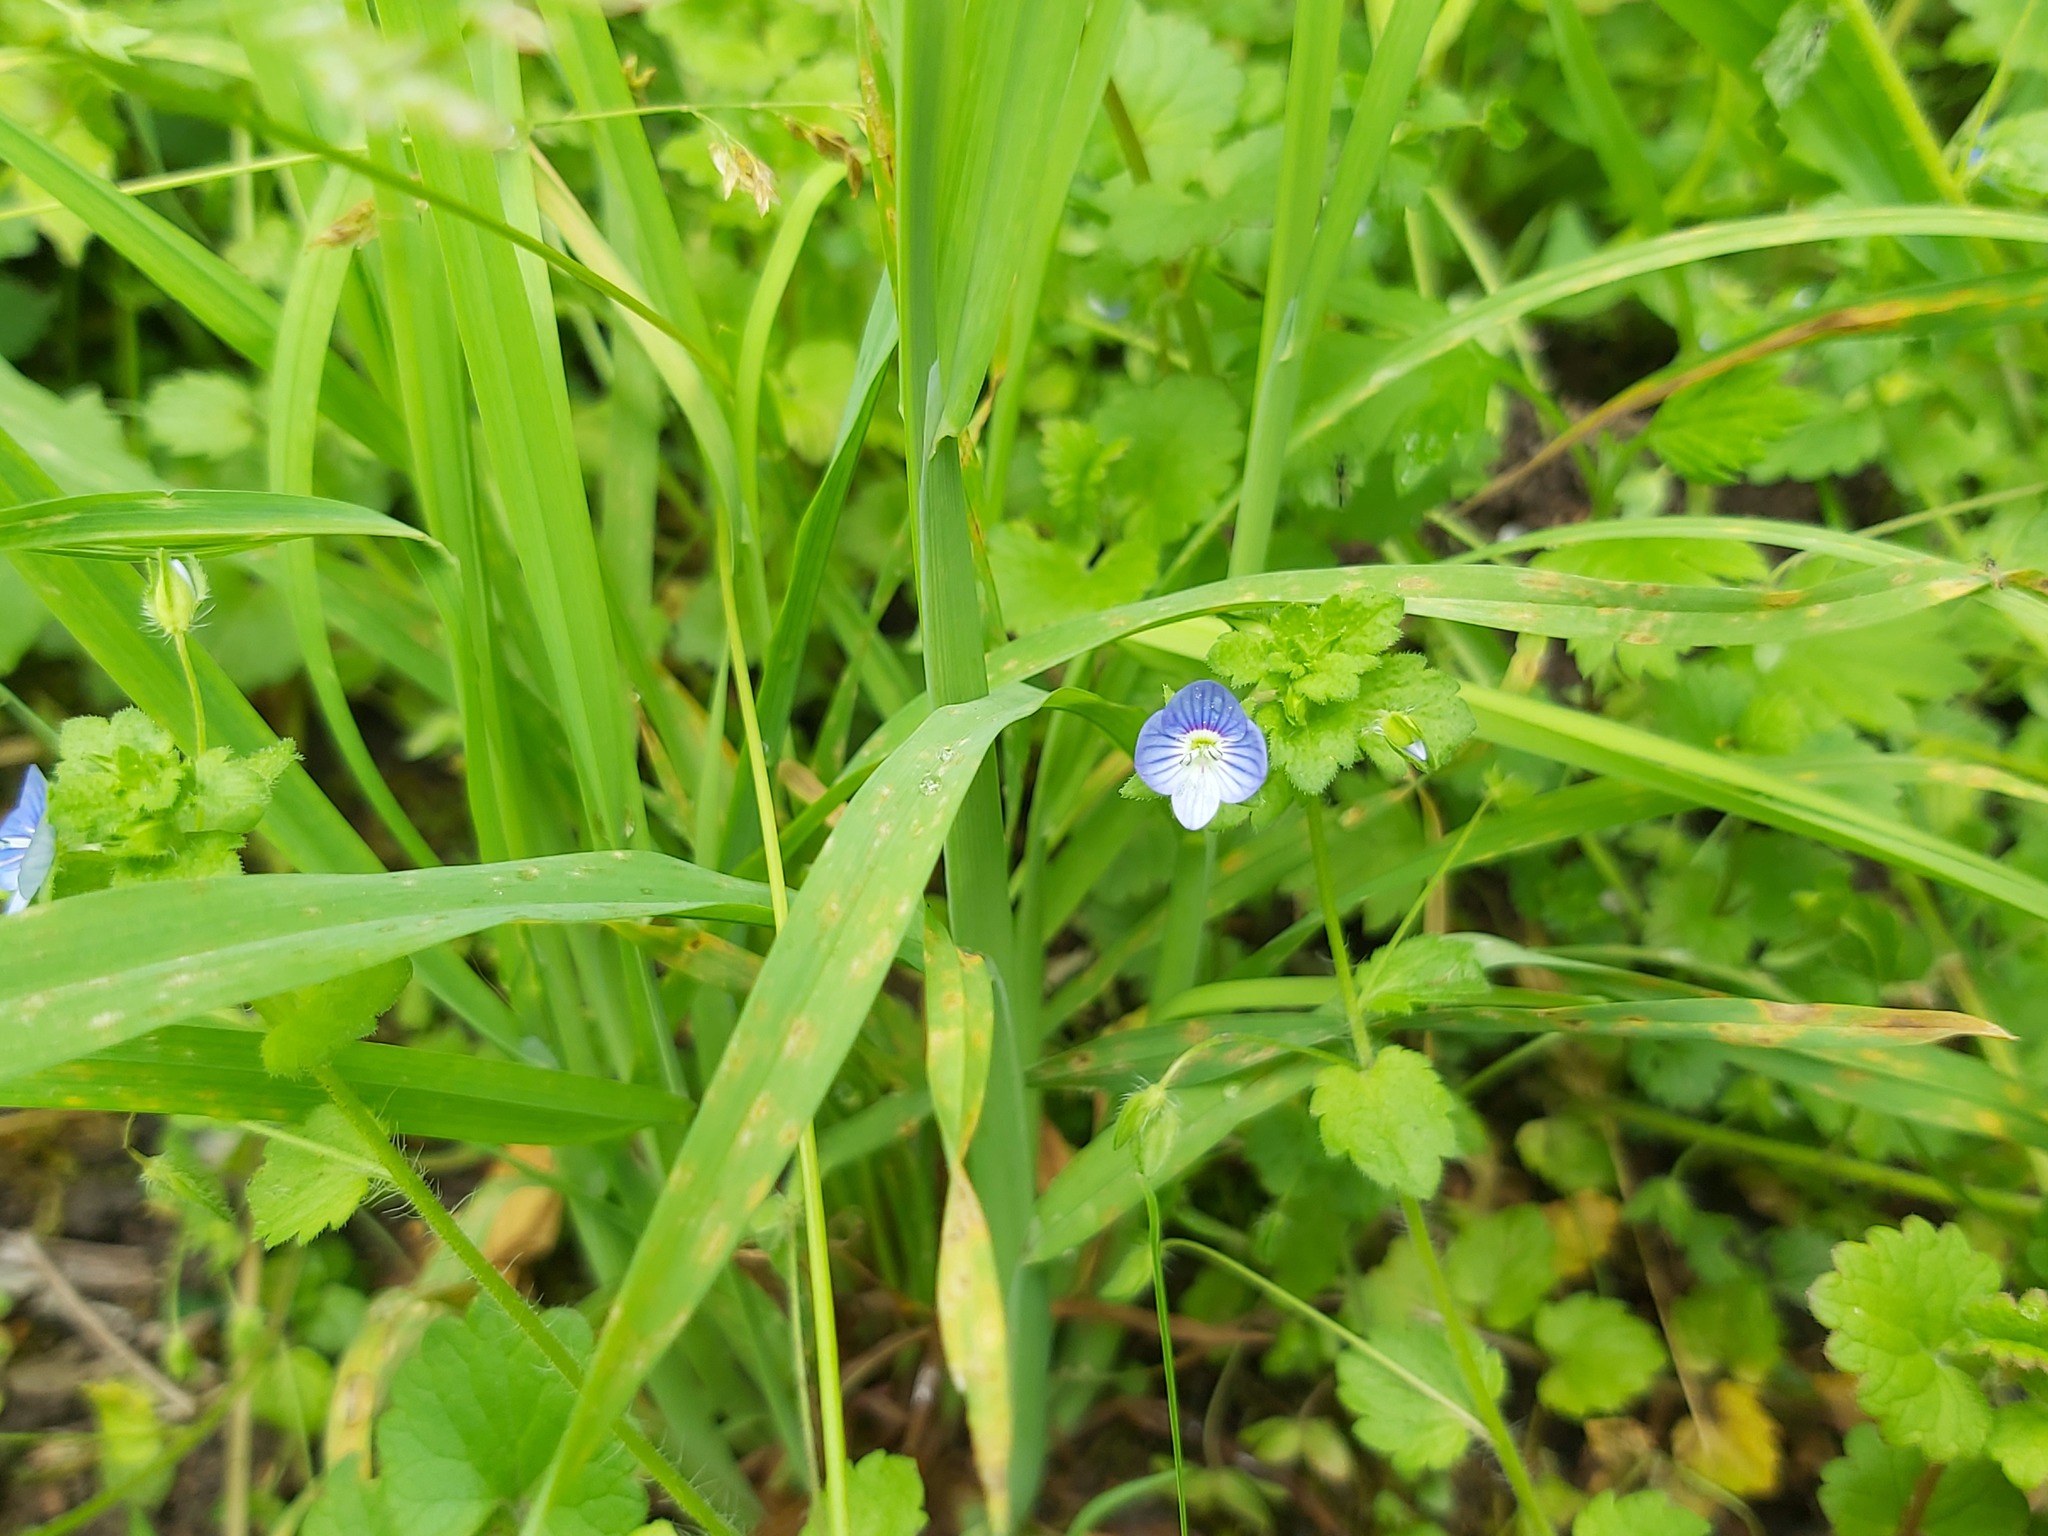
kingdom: Plantae
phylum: Tracheophyta
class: Magnoliopsida
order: Lamiales
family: Plantaginaceae
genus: Veronica
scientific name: Veronica persica
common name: Common field-speedwell
